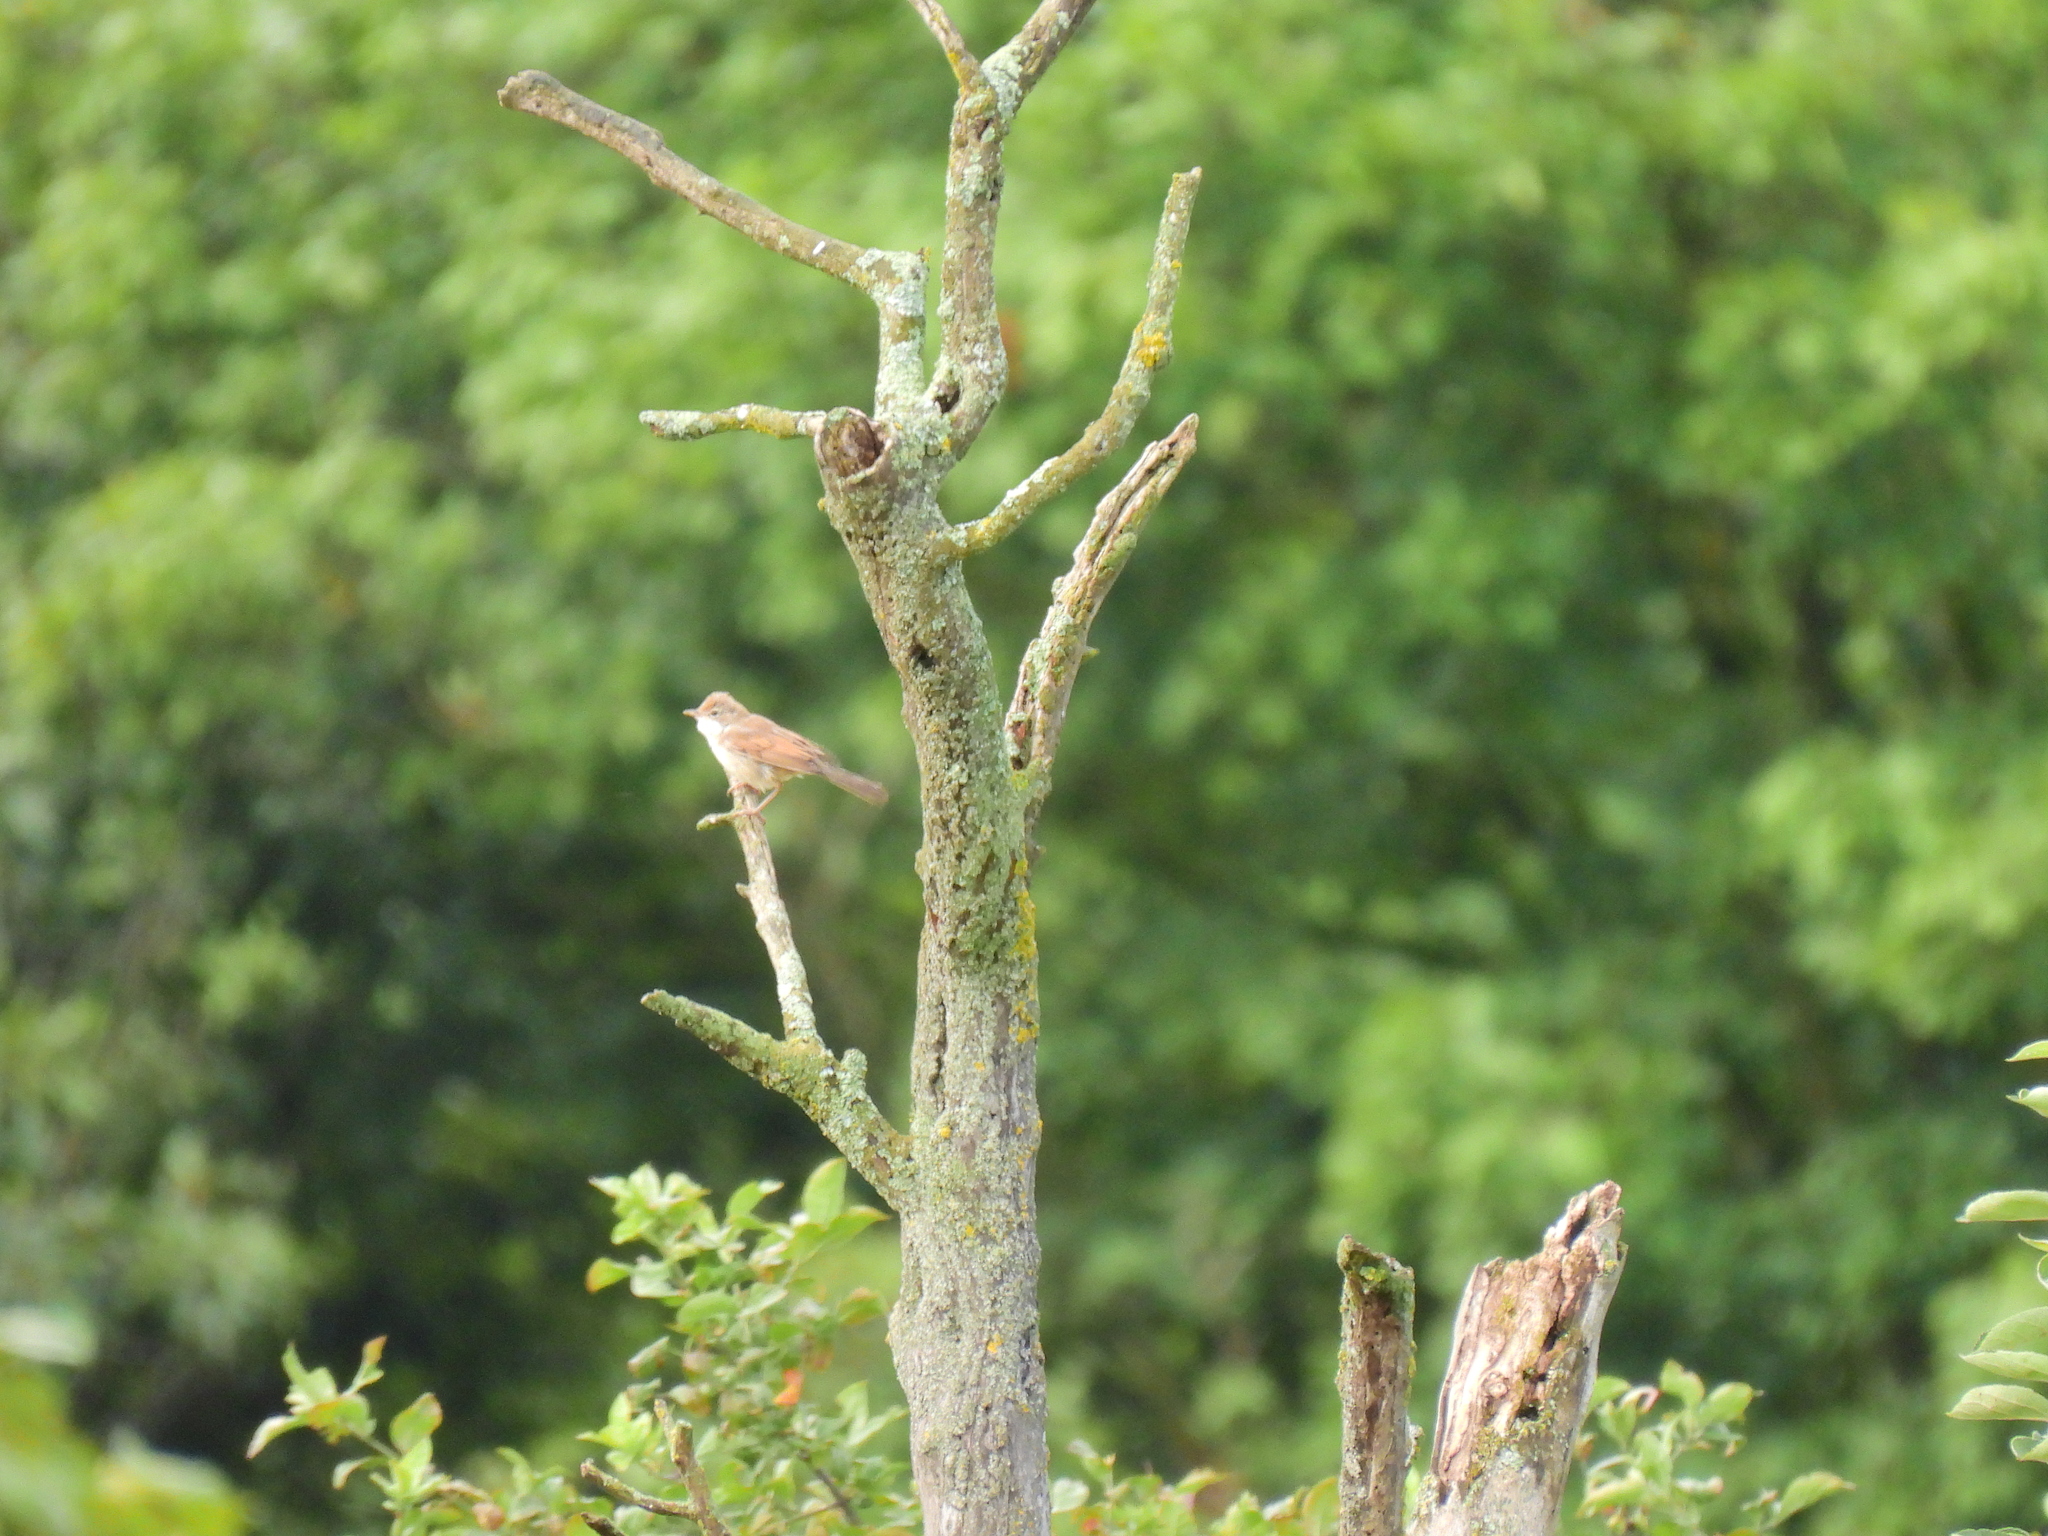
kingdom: Animalia
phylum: Chordata
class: Aves
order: Passeriformes
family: Sylviidae
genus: Sylvia
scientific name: Sylvia communis
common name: Common whitethroat
